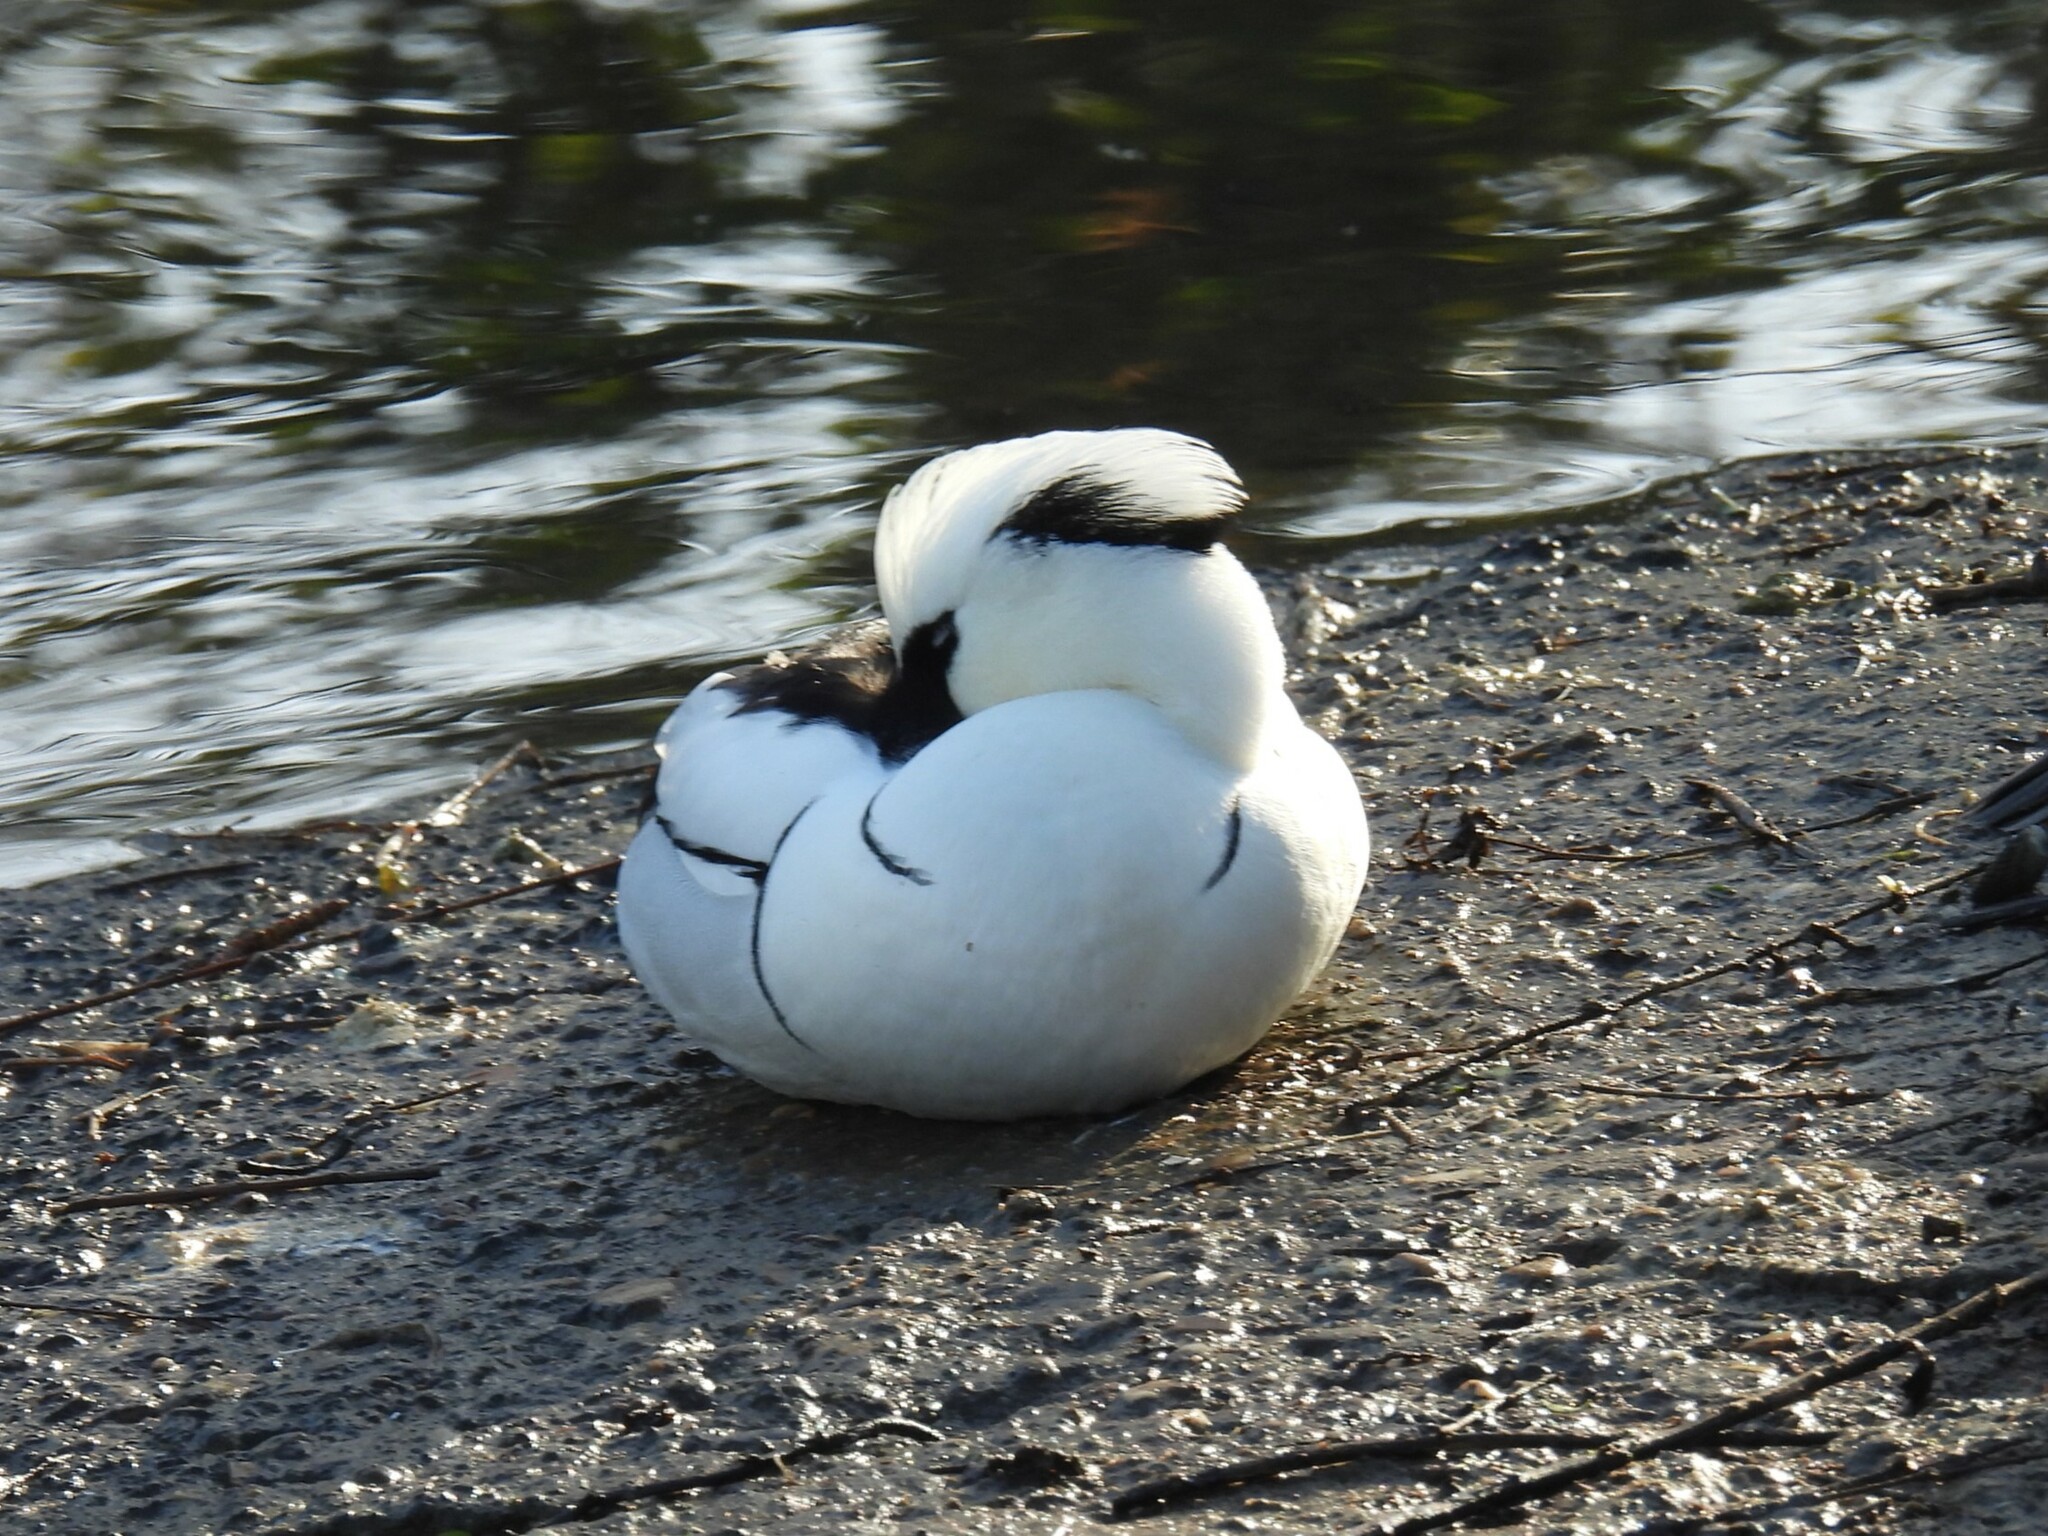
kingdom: Animalia
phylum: Chordata
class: Aves
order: Anseriformes
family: Anatidae
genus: Mergellus
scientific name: Mergellus albellus
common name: Smew
